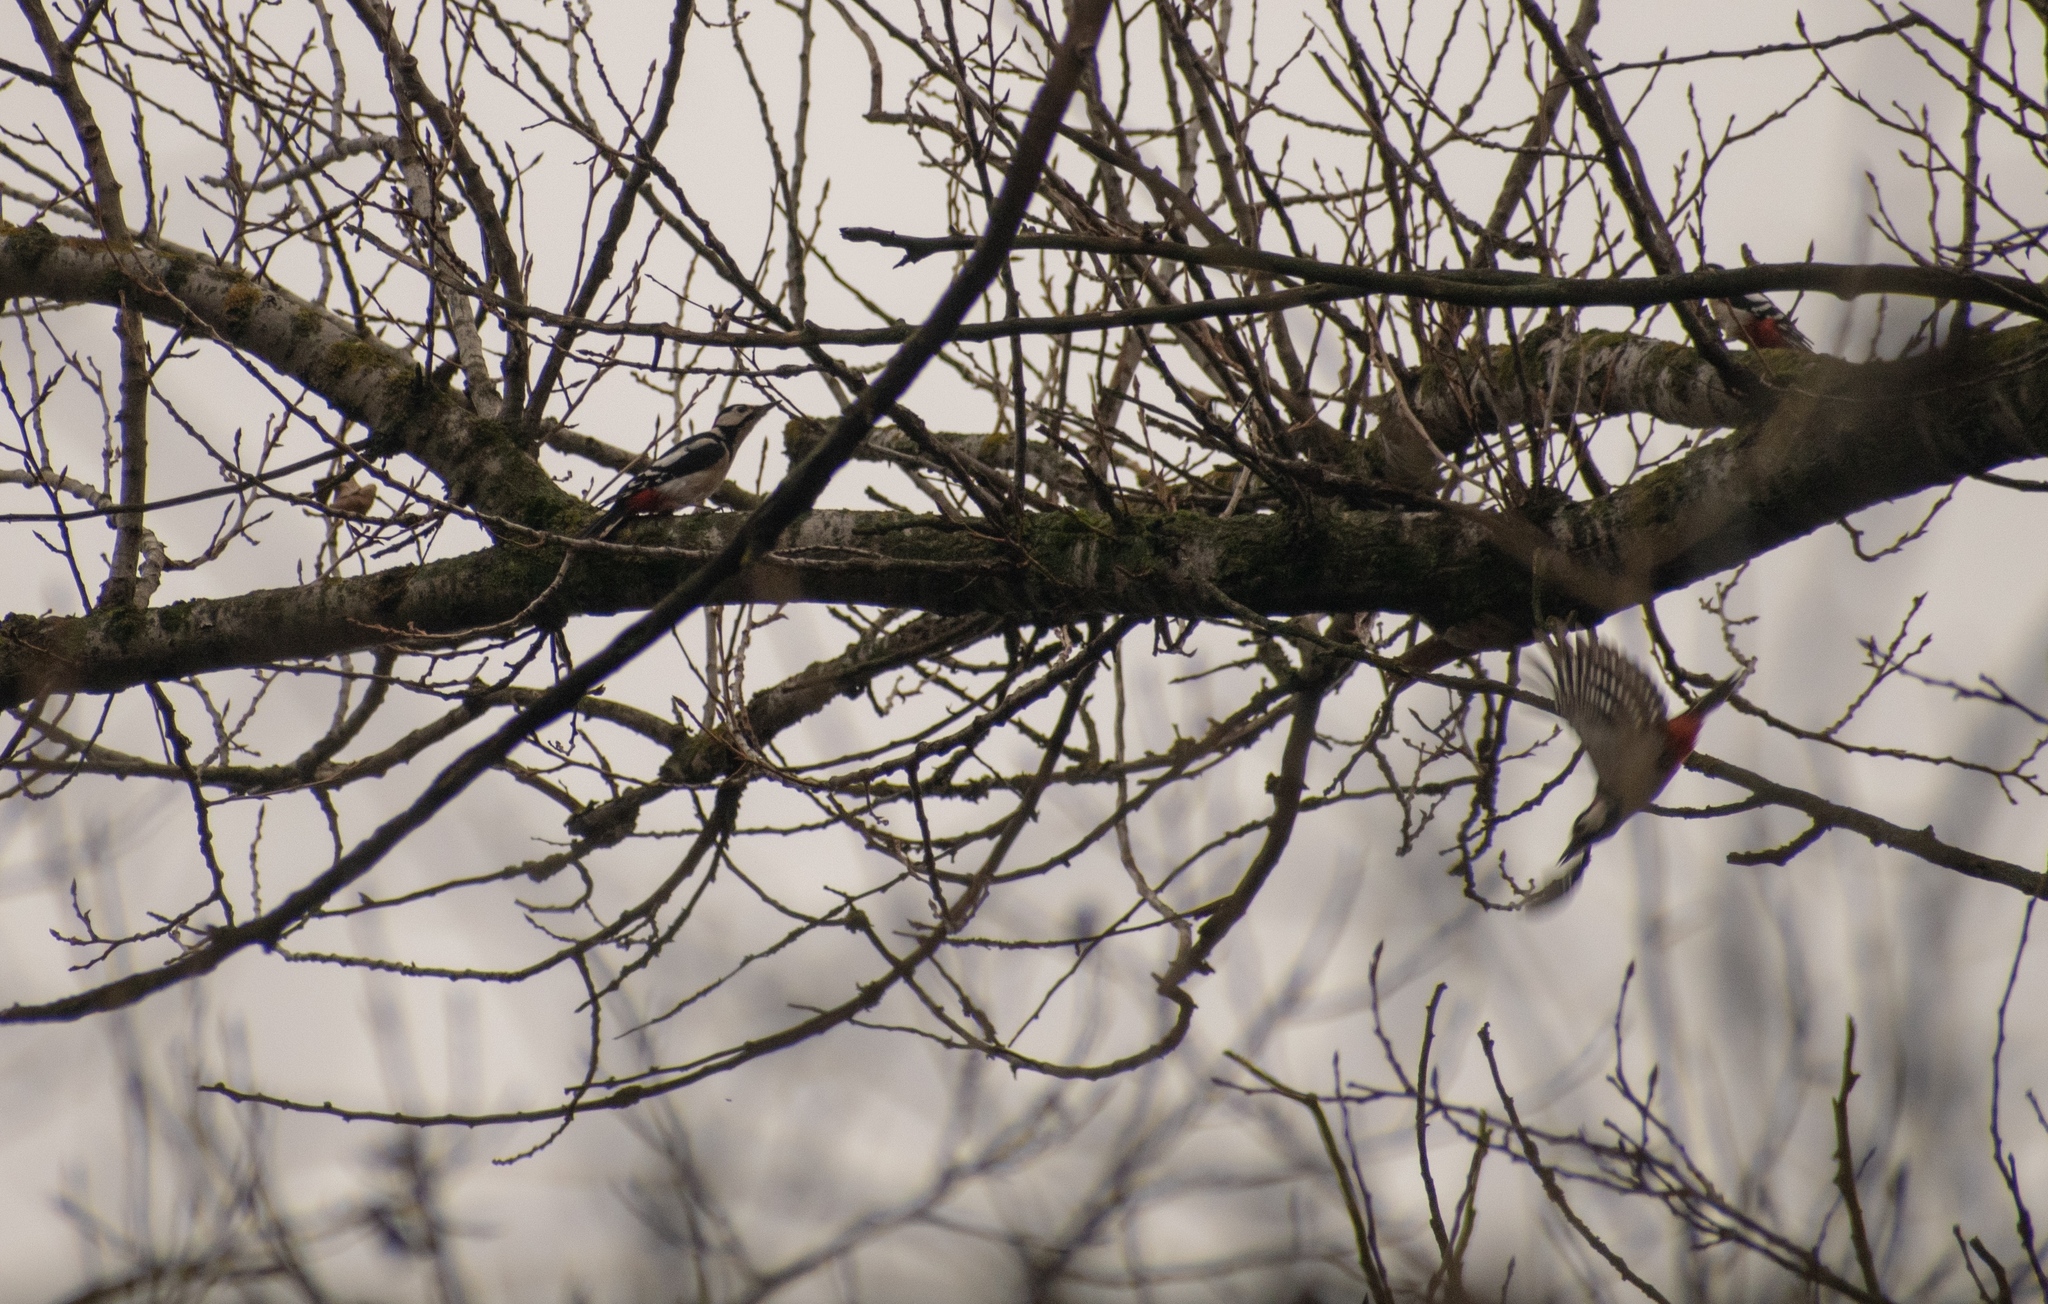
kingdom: Animalia
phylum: Chordata
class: Aves
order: Piciformes
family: Picidae
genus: Dendrocopos
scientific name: Dendrocopos major
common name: Great spotted woodpecker
